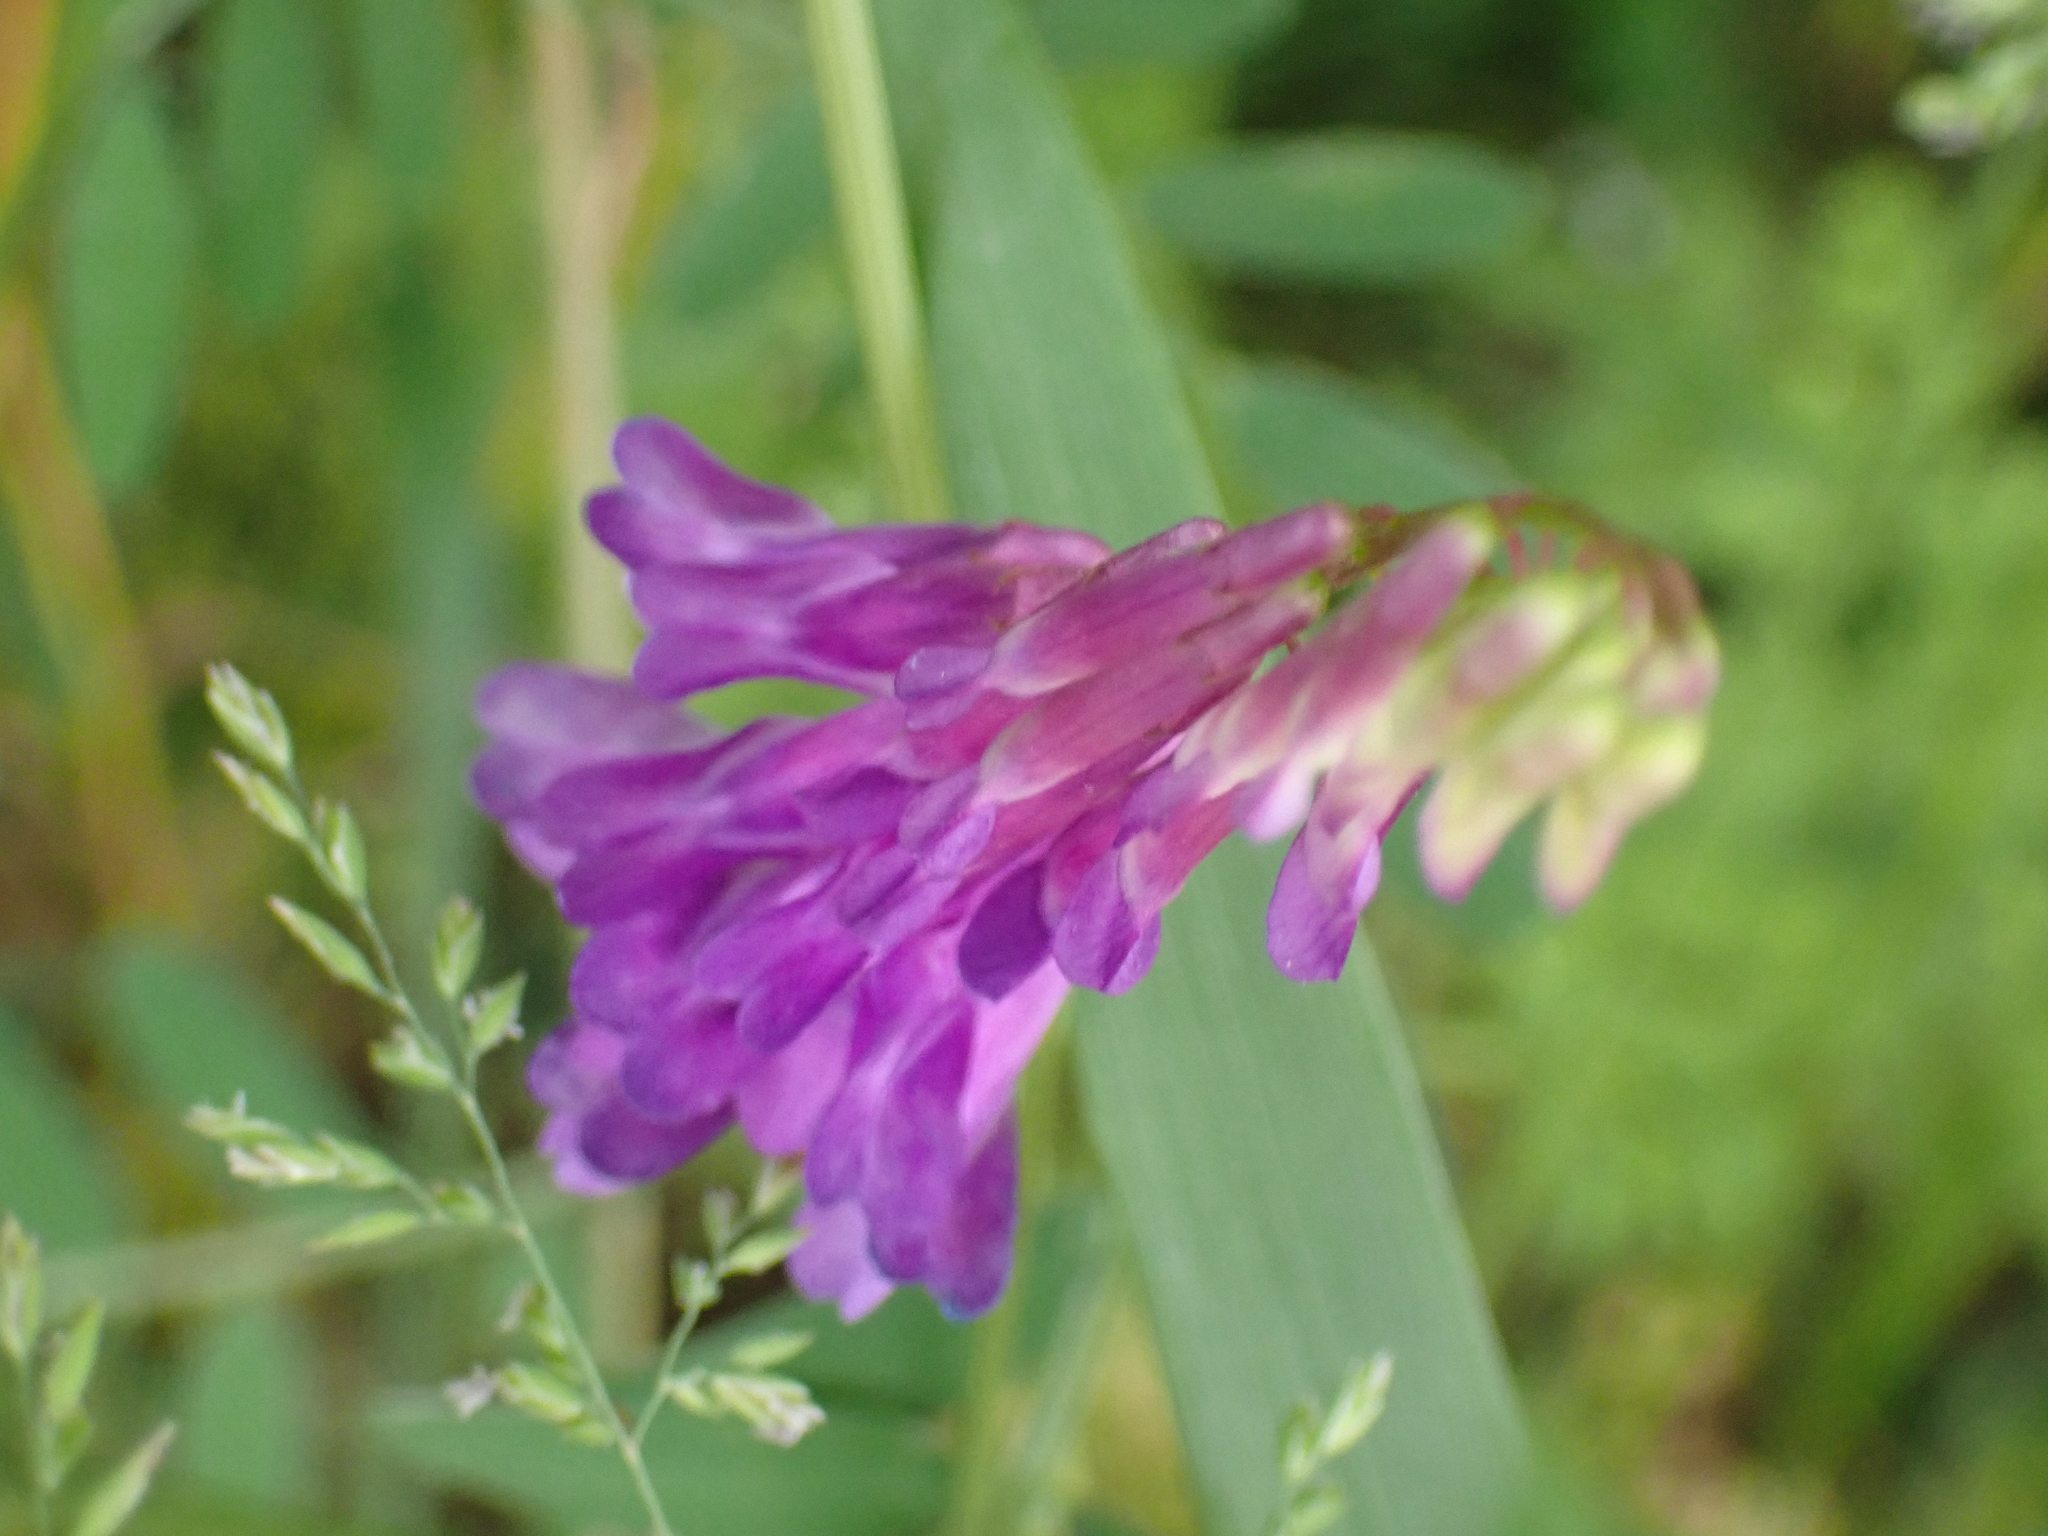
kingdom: Plantae
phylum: Tracheophyta
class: Magnoliopsida
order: Fabales
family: Fabaceae
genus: Vicia
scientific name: Vicia villosa
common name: Fodder vetch
